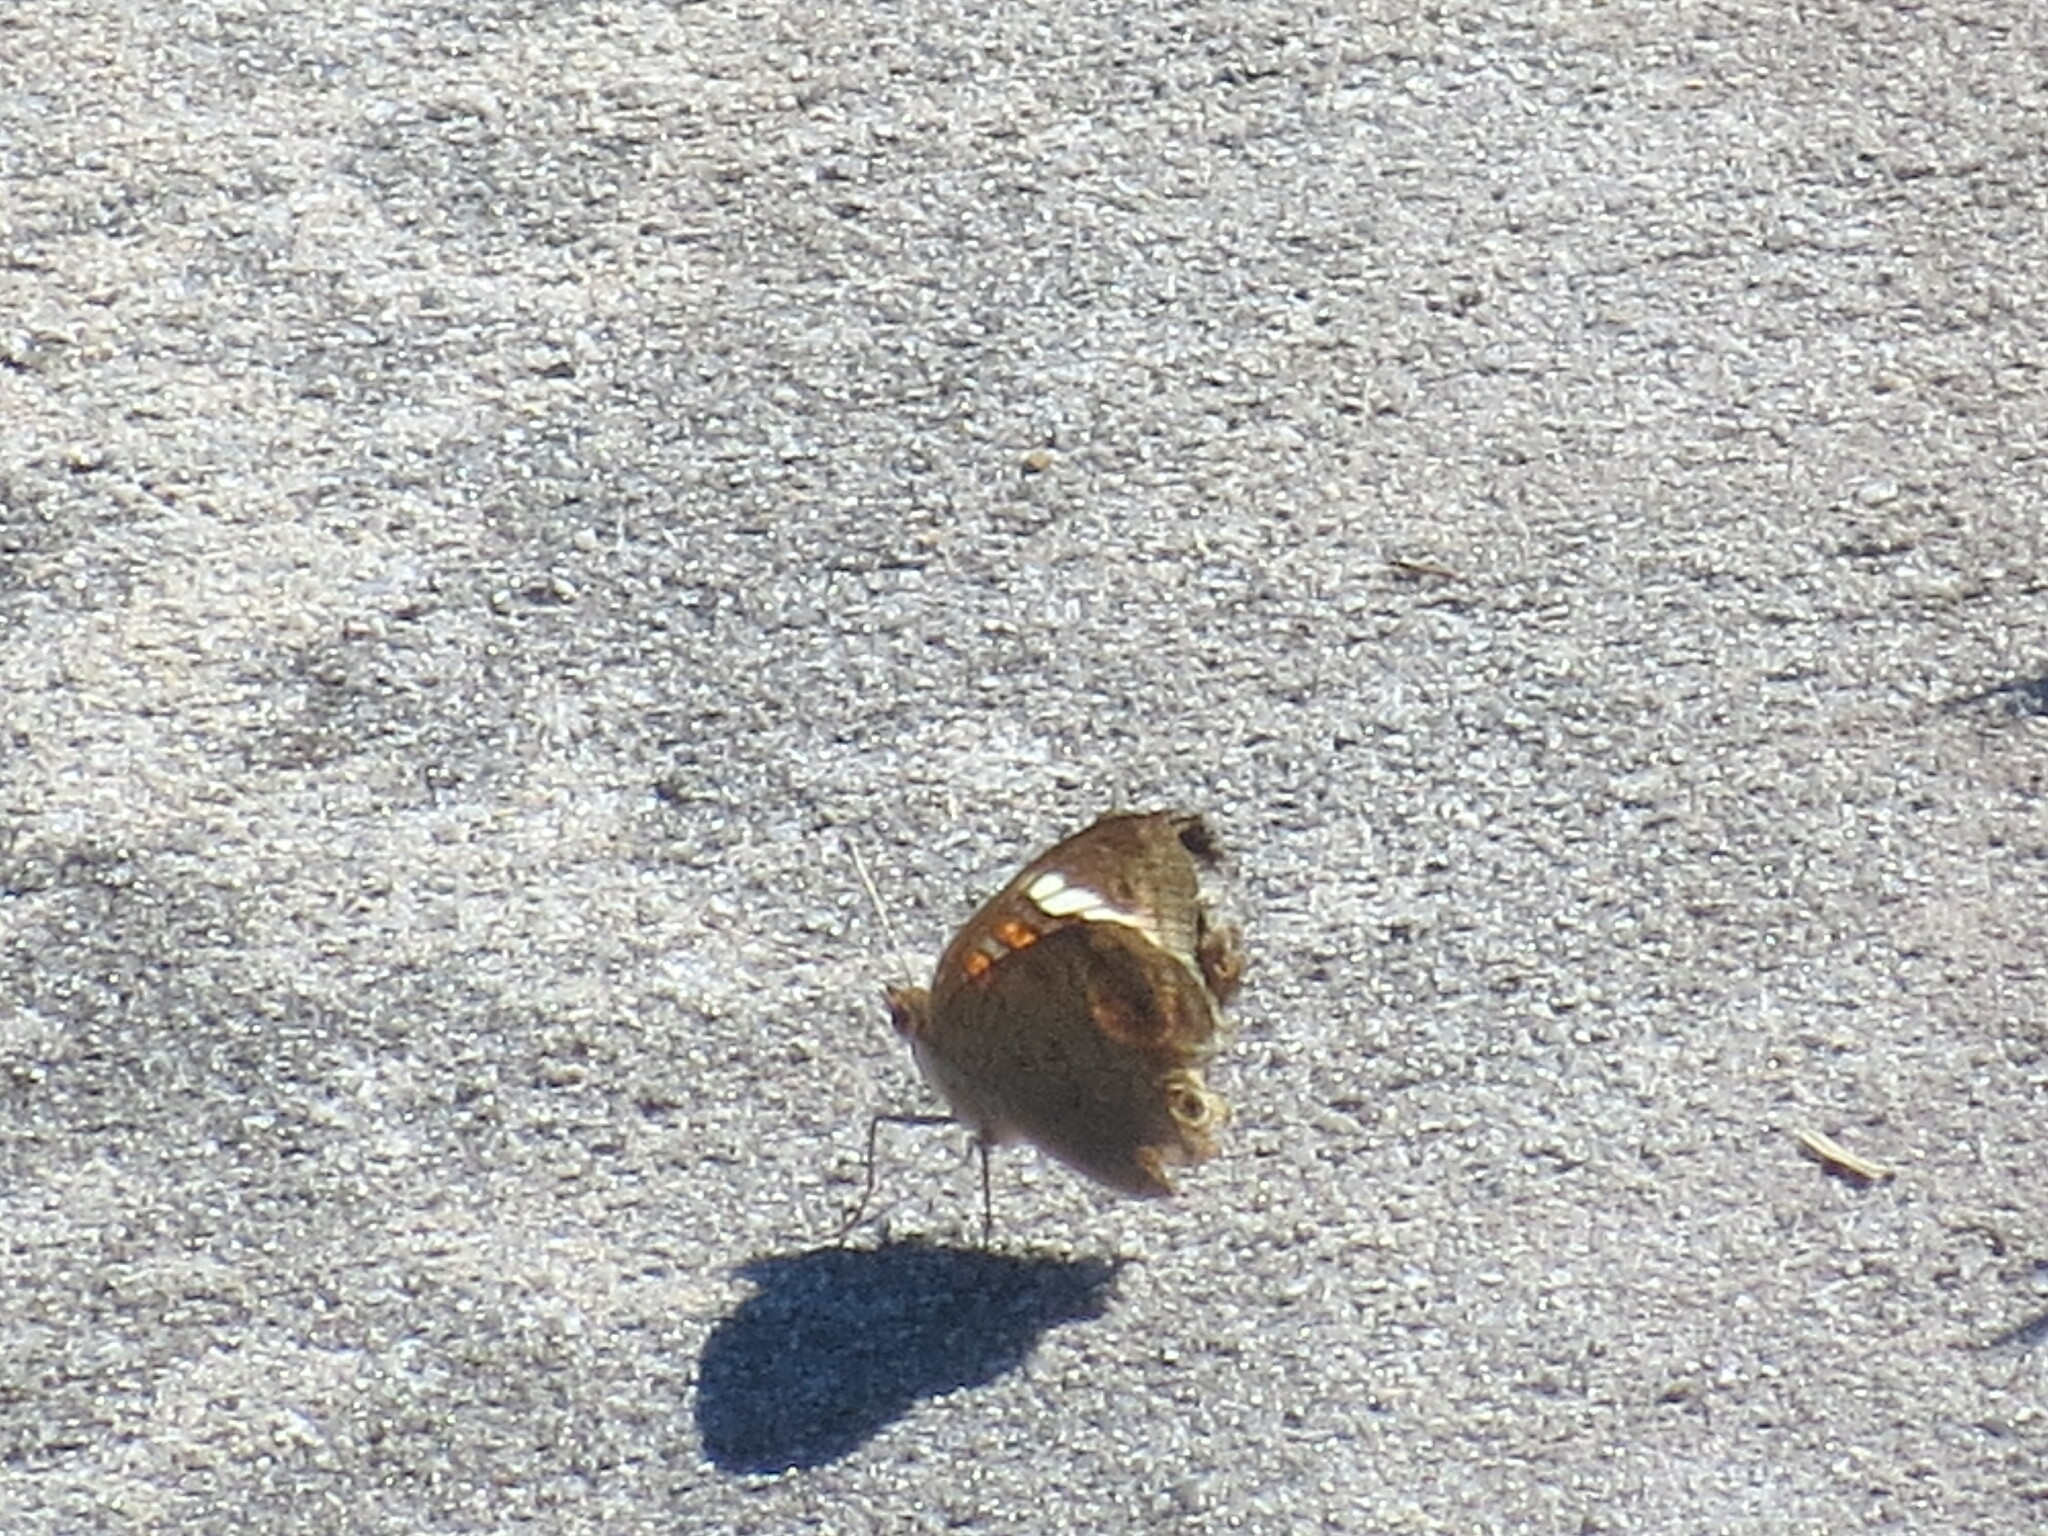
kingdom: Animalia
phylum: Arthropoda
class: Insecta
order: Lepidoptera
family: Nymphalidae
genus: Junonia
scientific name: Junonia coenia
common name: Common buckeye
